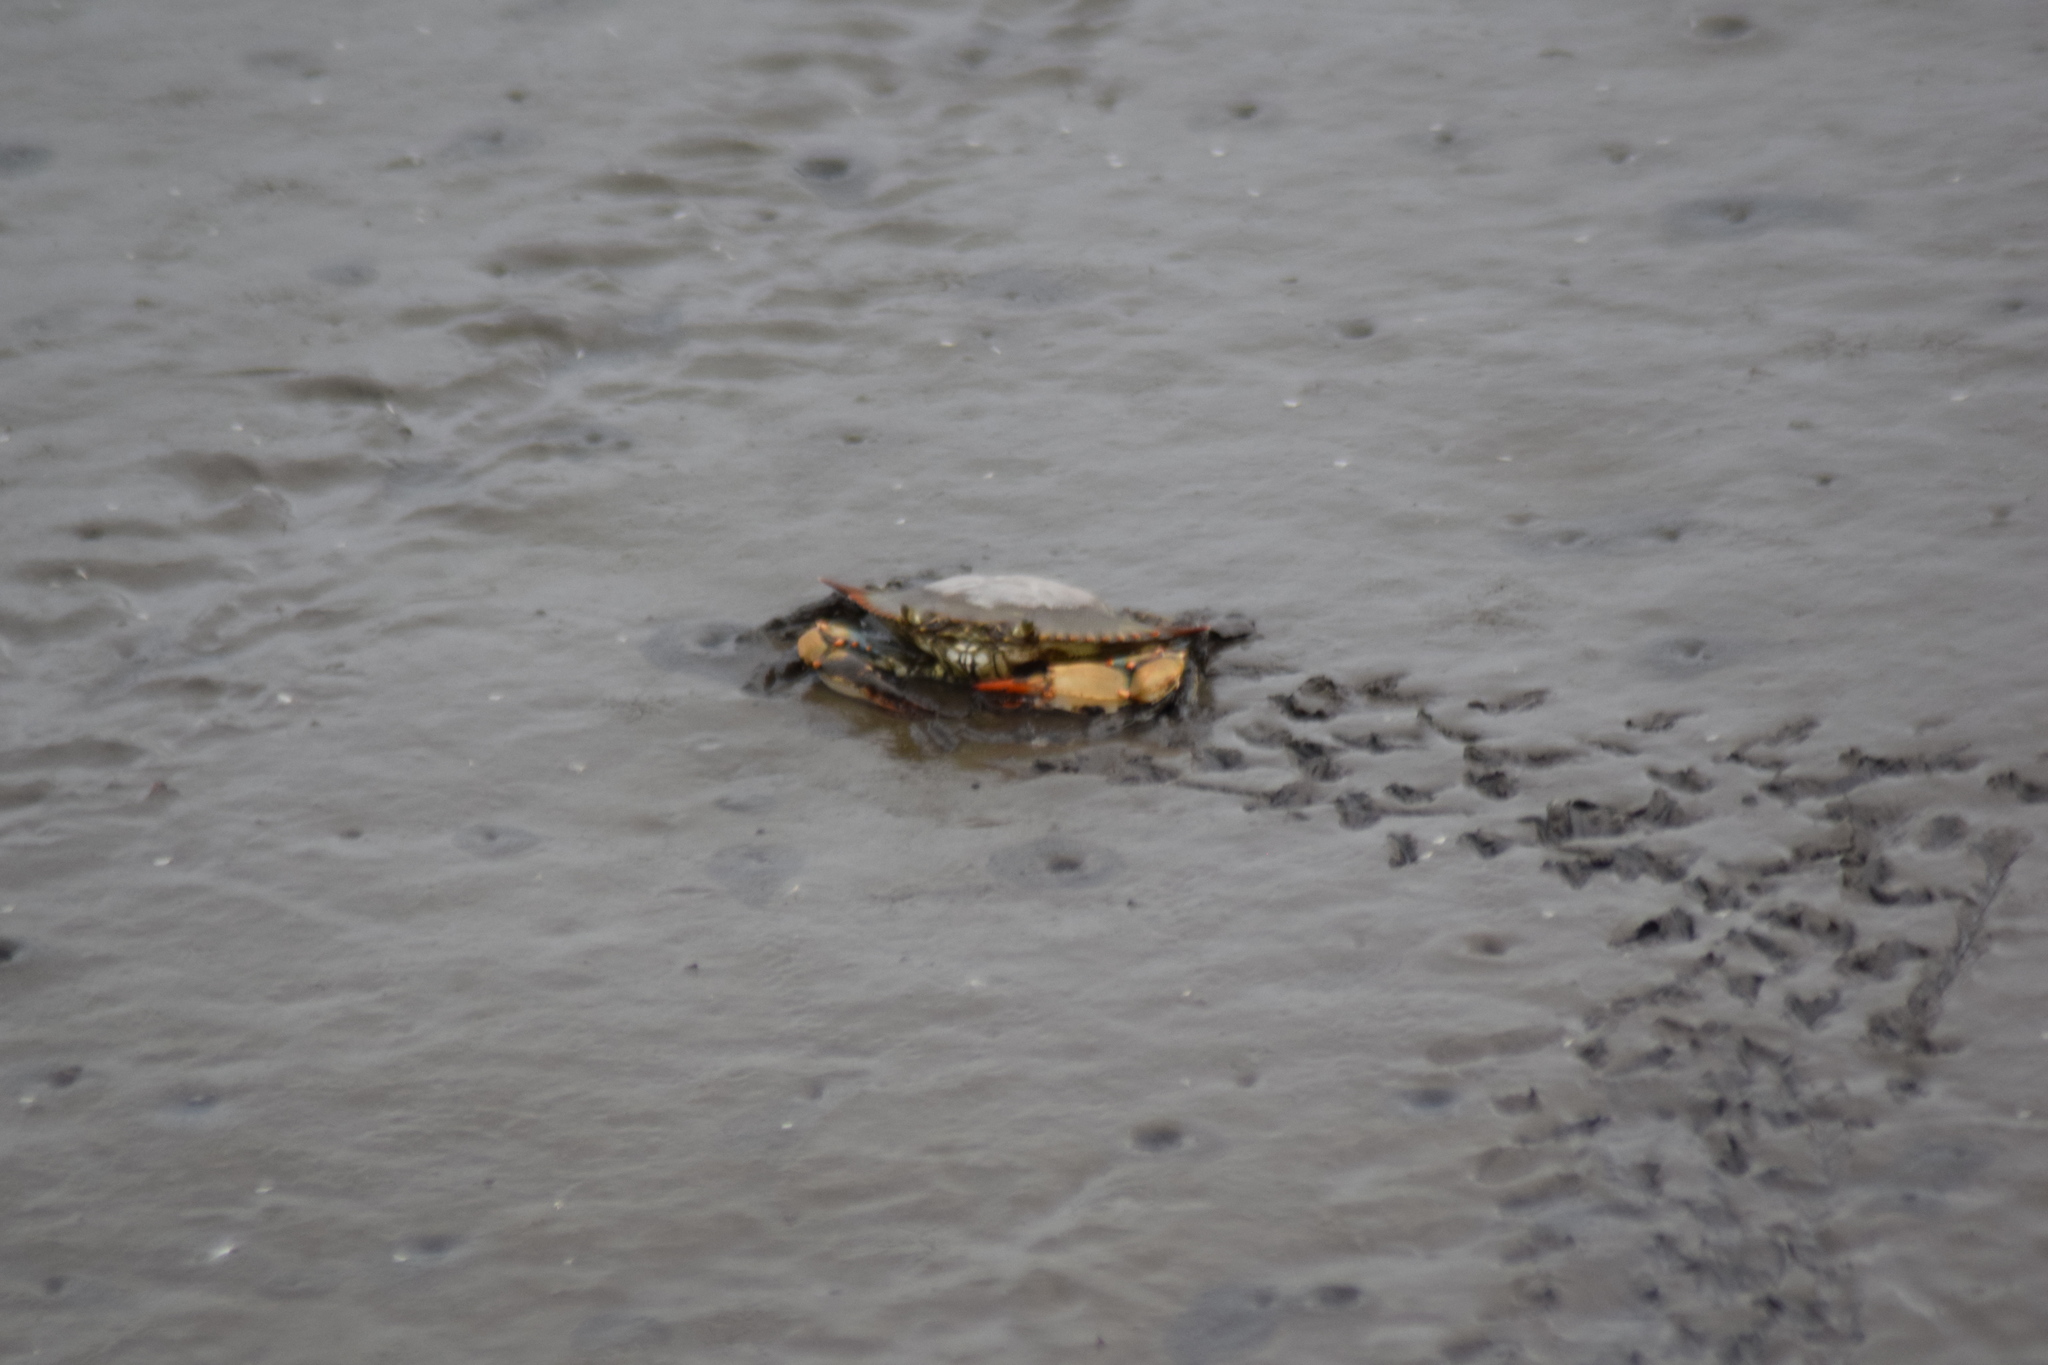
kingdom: Animalia
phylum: Arthropoda
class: Malacostraca
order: Decapoda
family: Portunidae
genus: Callinectes
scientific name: Callinectes sapidus
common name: Blue crab
